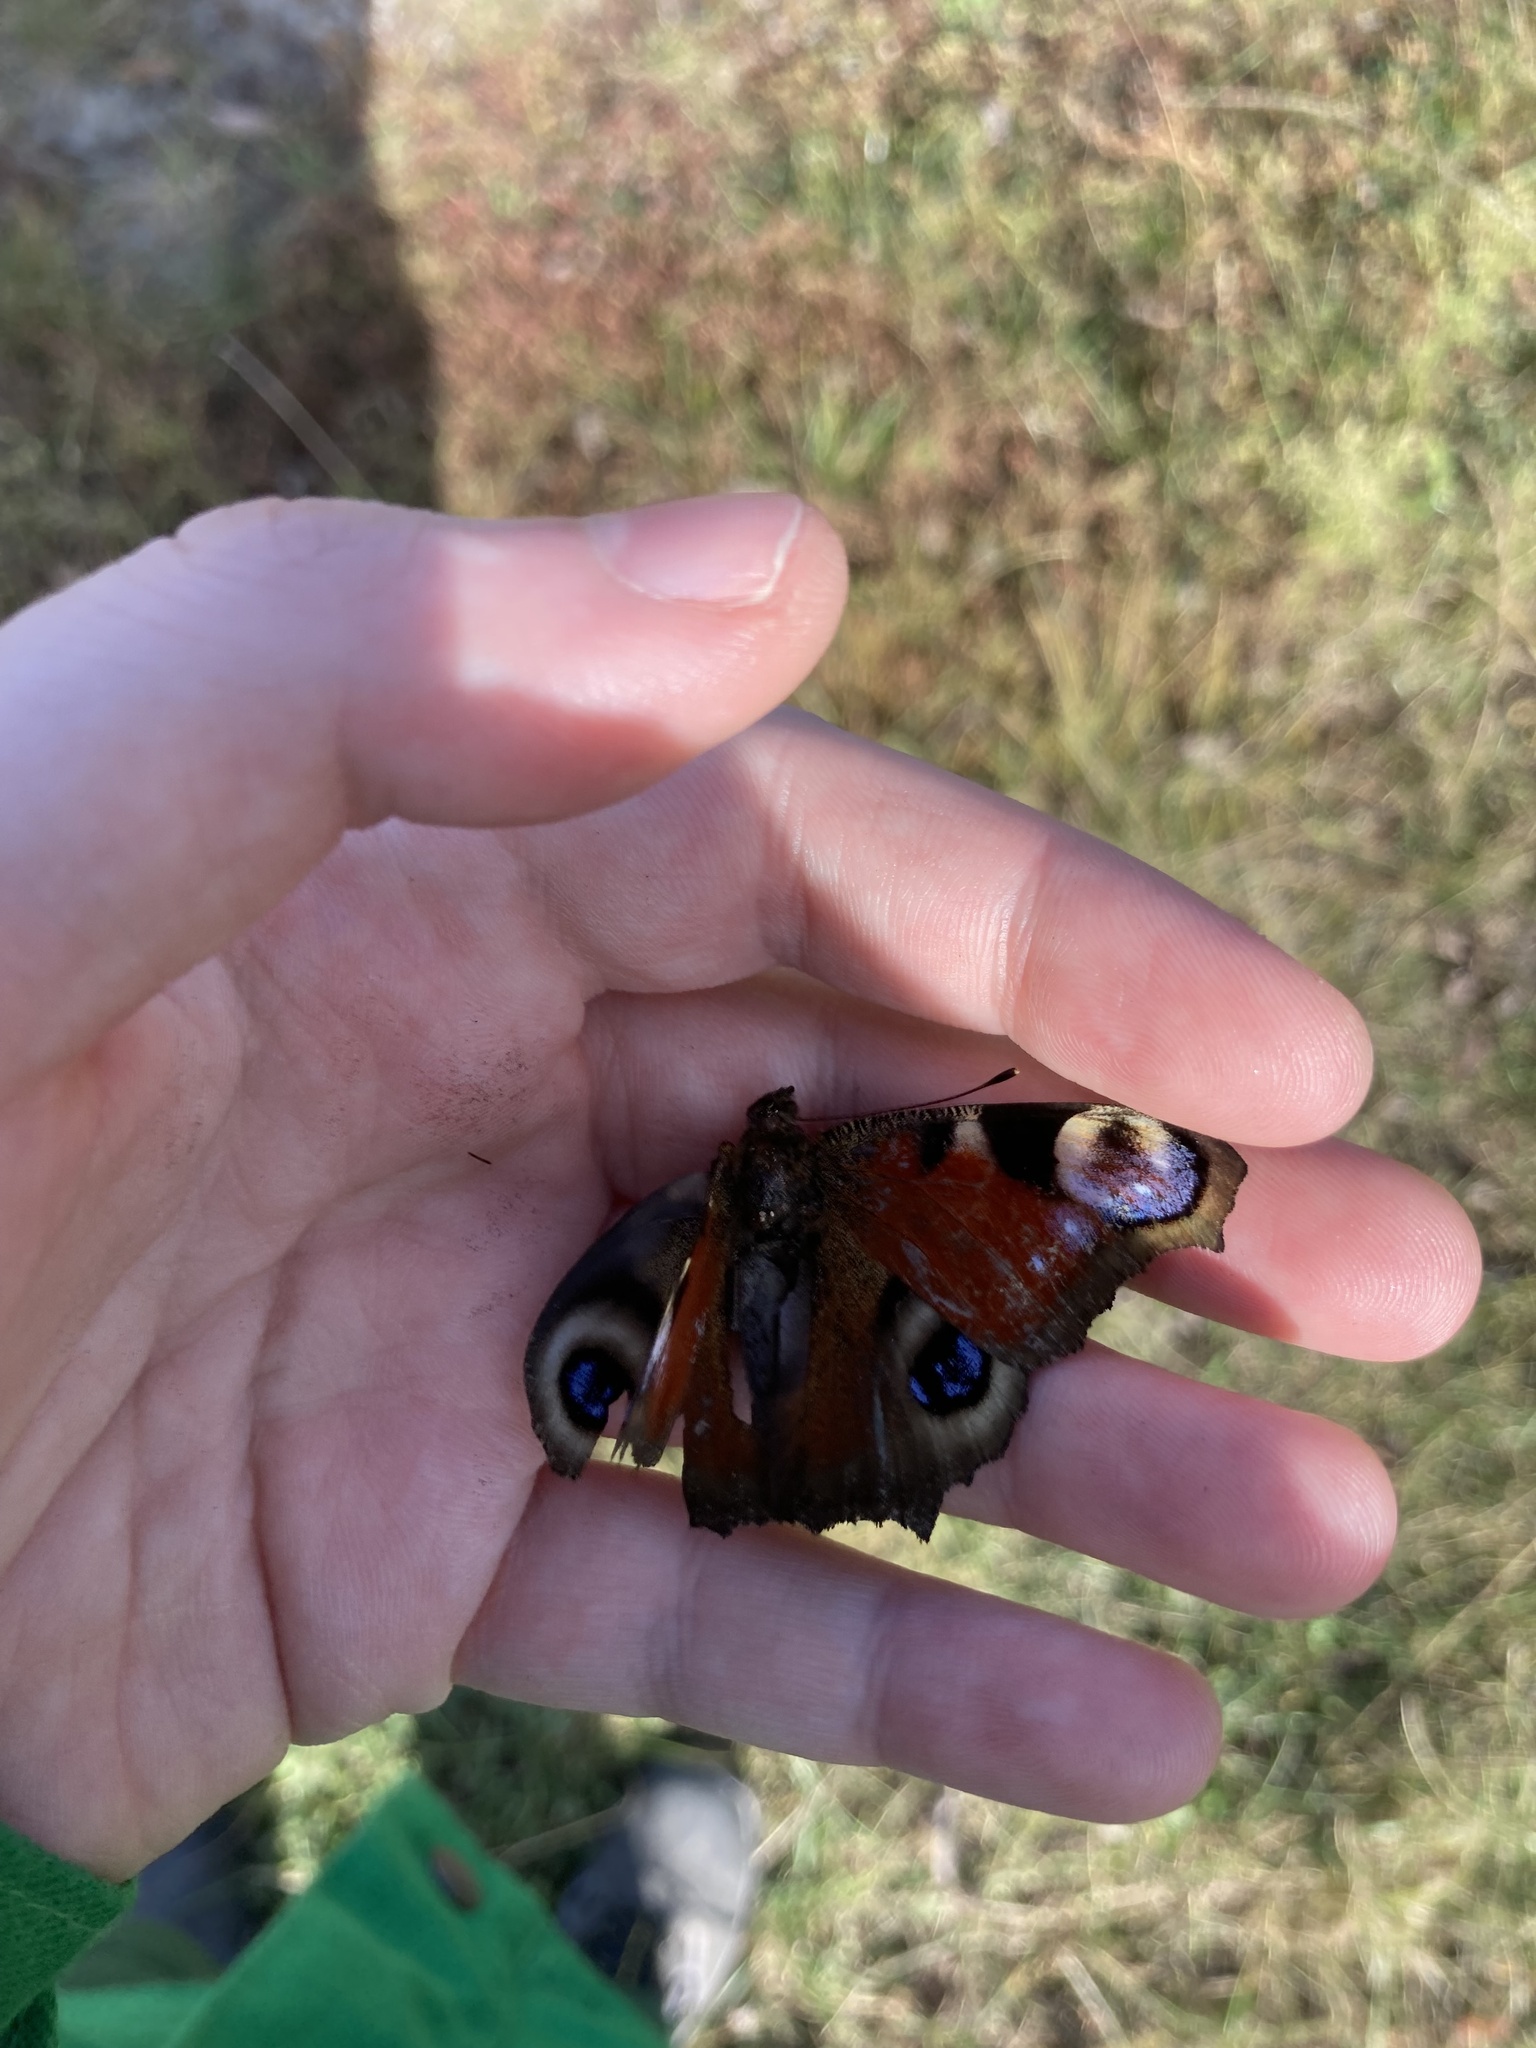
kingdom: Animalia
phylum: Arthropoda
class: Insecta
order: Lepidoptera
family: Nymphalidae
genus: Aglais
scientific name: Aglais io
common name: Peacock
